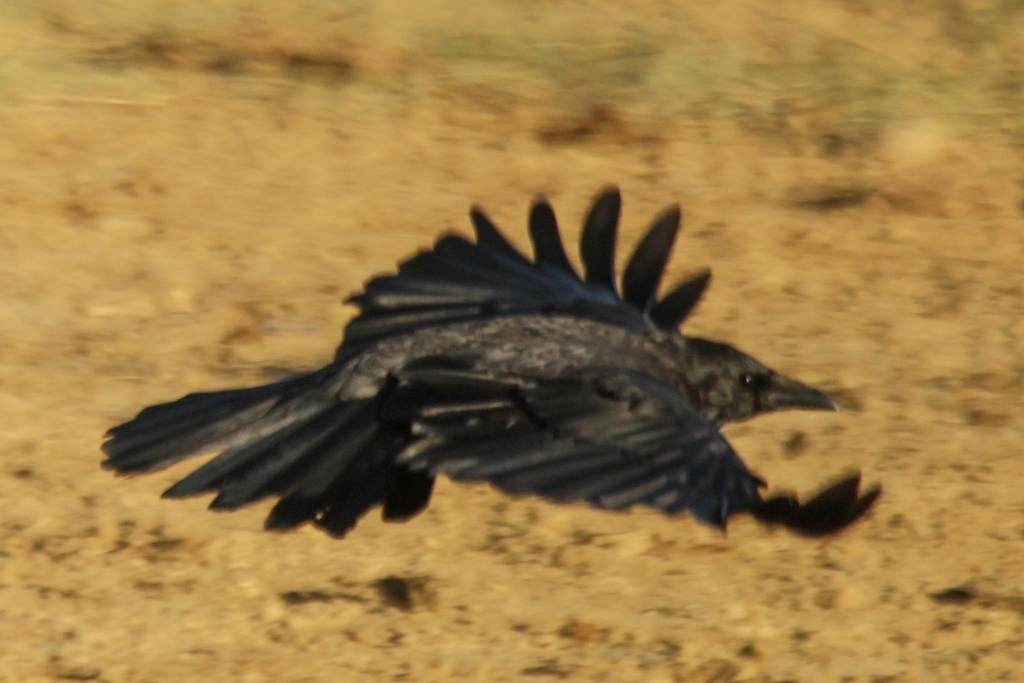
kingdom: Animalia
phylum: Chordata
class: Aves
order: Passeriformes
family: Corvidae
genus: Corvus
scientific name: Corvus corone
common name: Carrion crow
